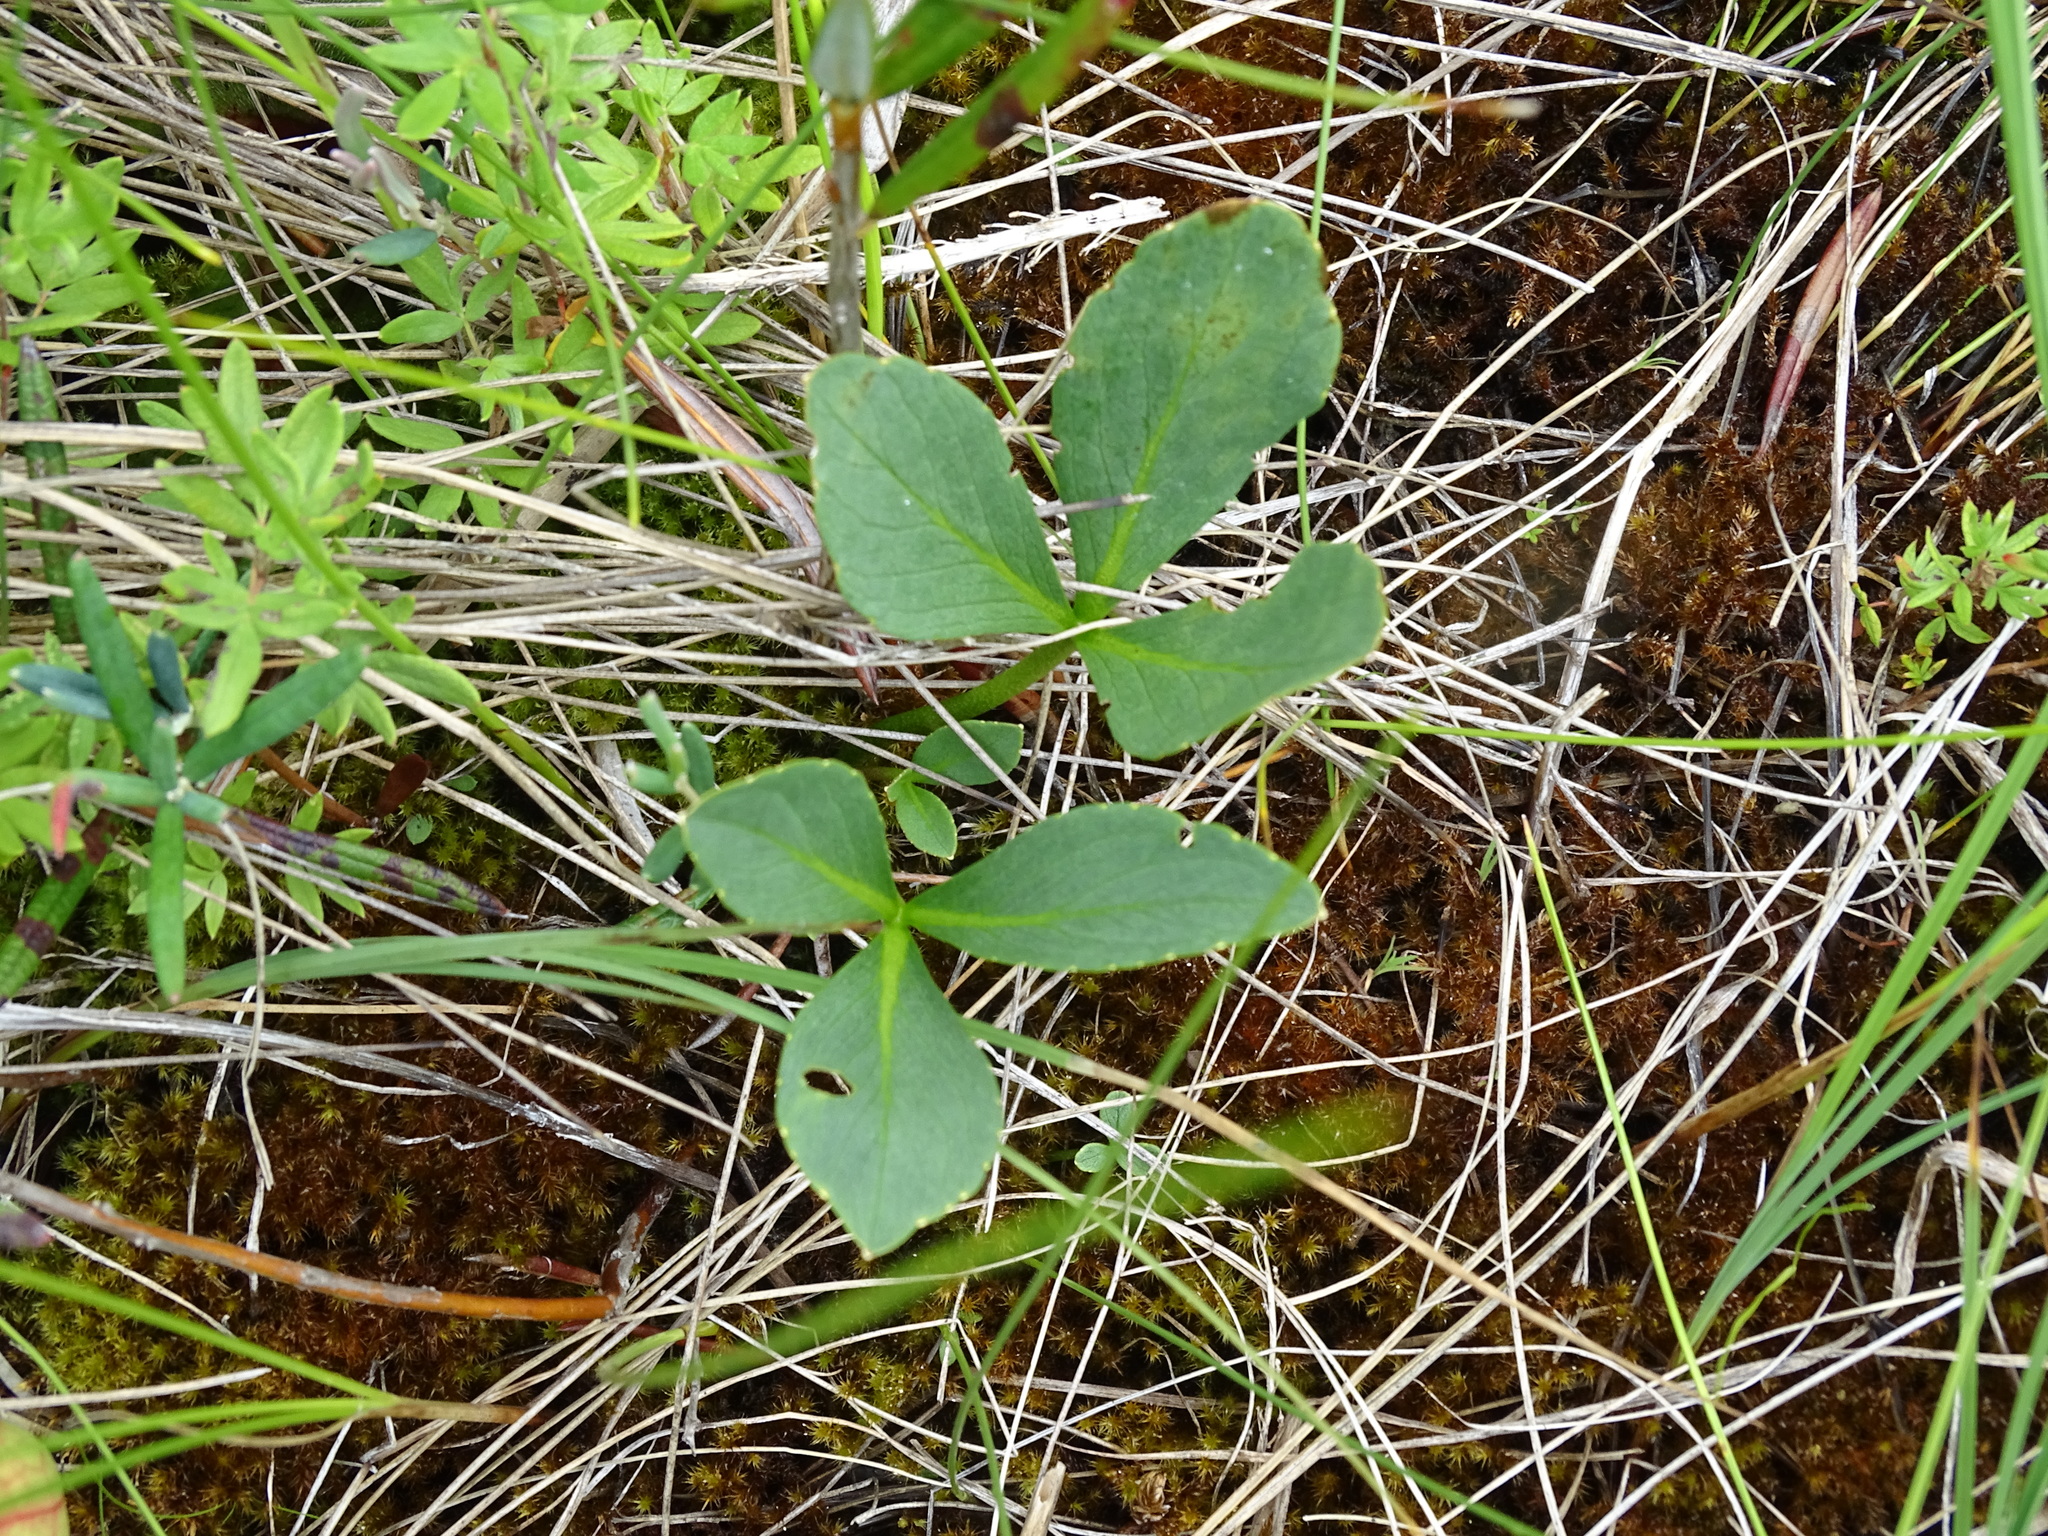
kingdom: Plantae
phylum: Tracheophyta
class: Magnoliopsida
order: Asterales
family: Menyanthaceae
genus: Menyanthes
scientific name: Menyanthes trifoliata
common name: Bogbean
